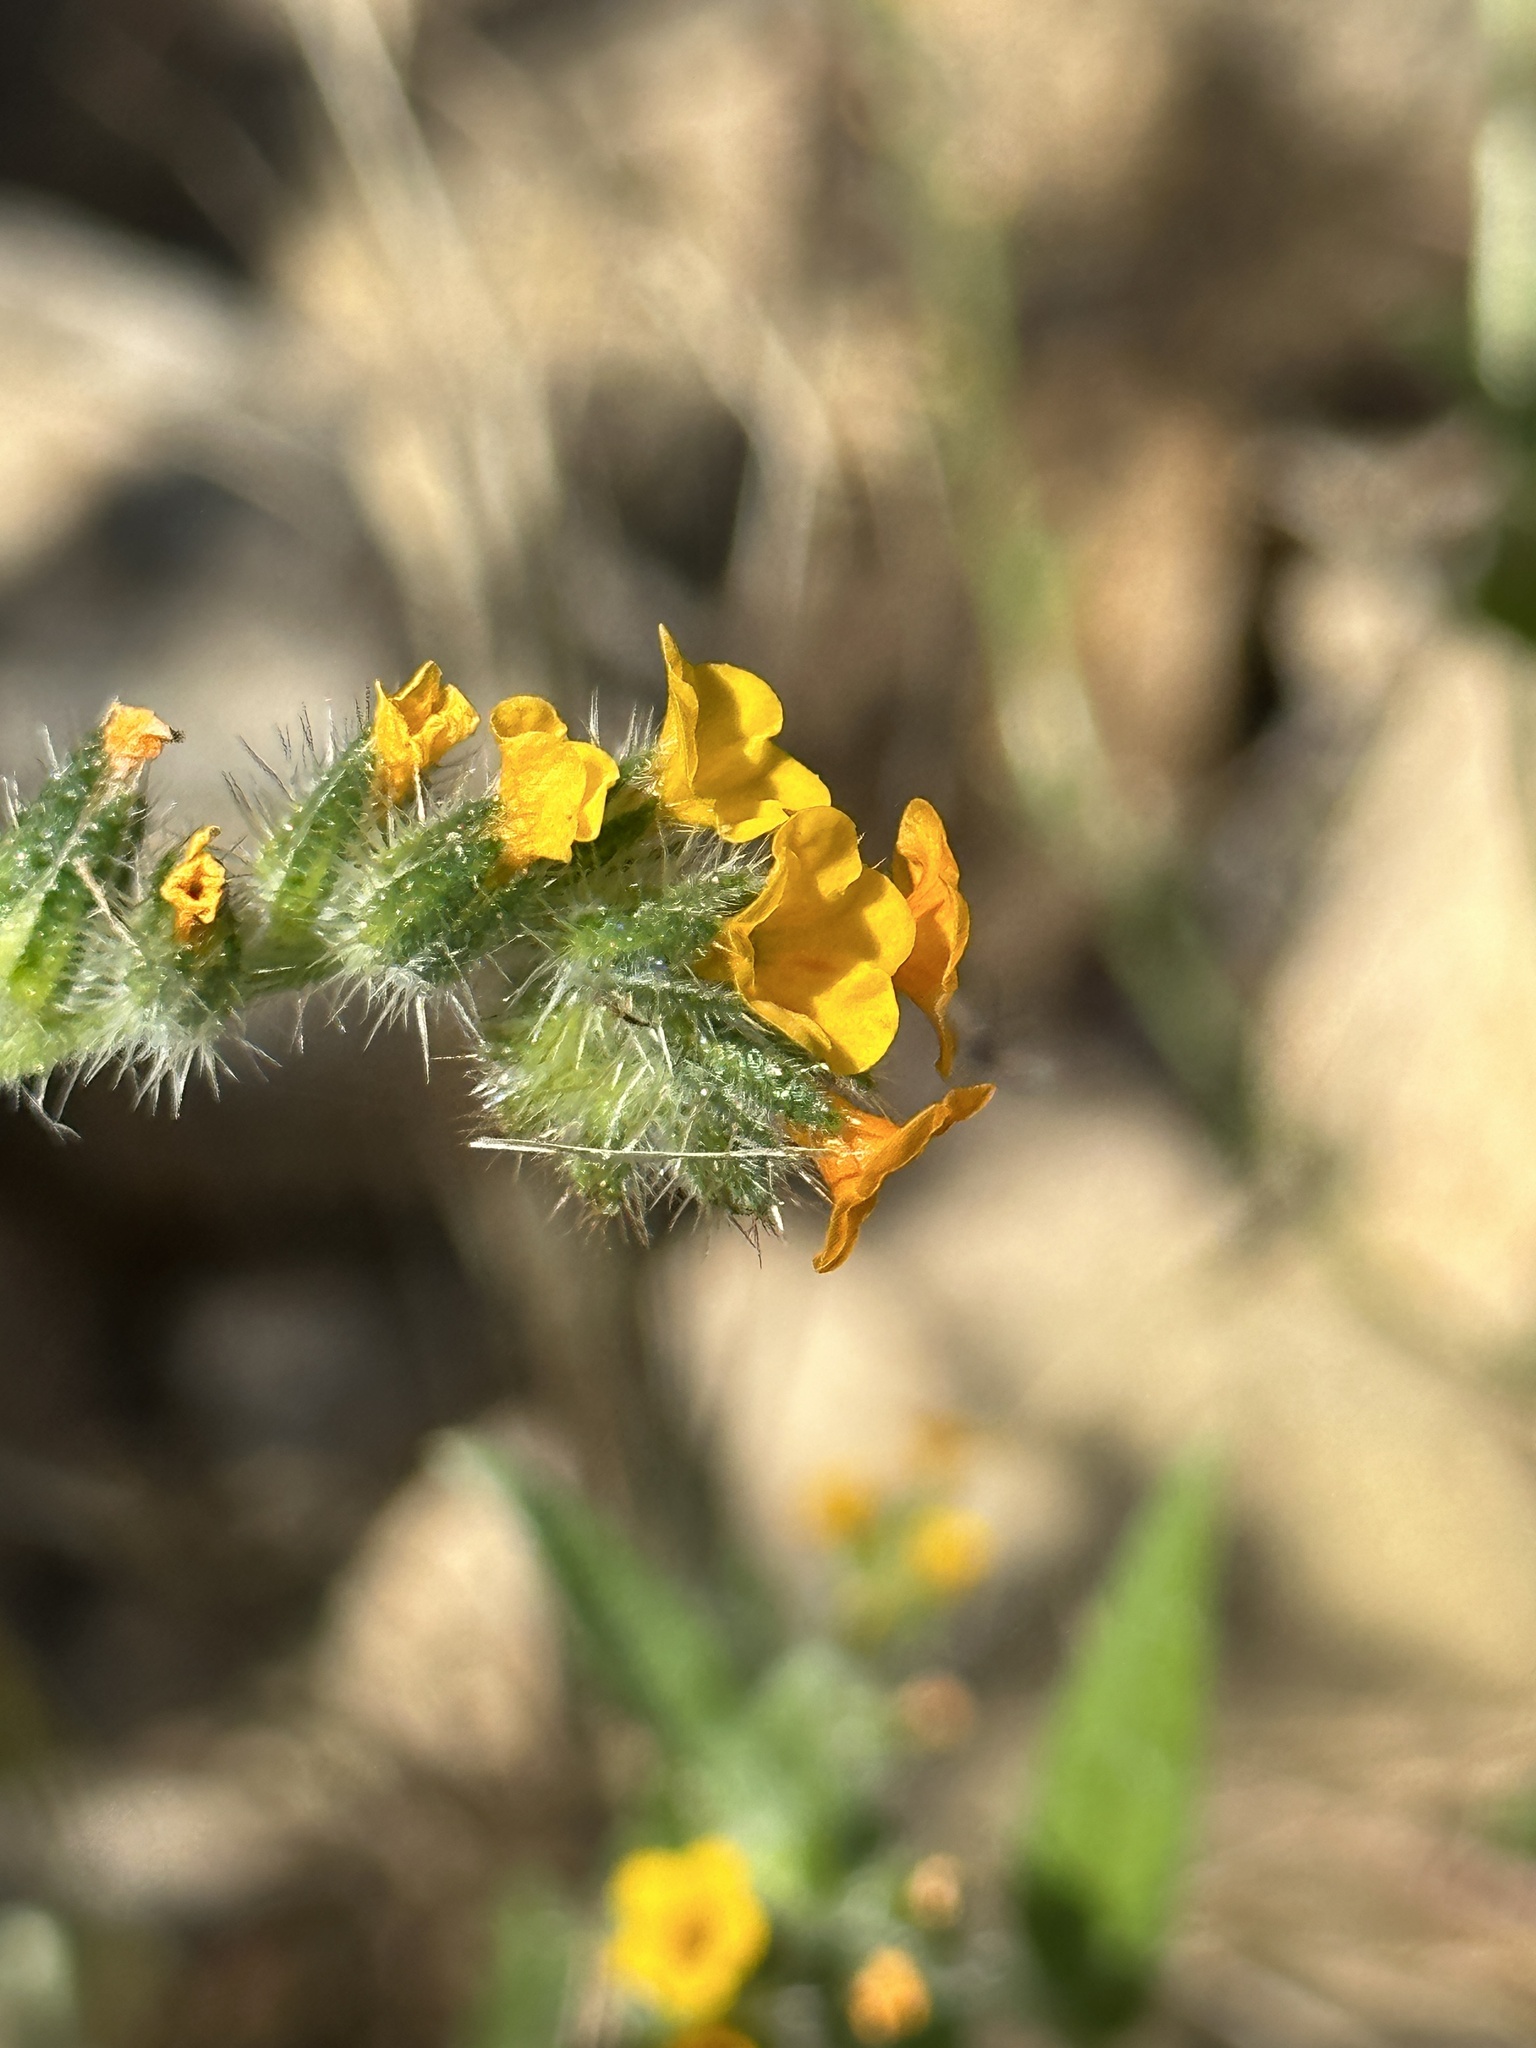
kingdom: Plantae
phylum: Tracheophyta
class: Magnoliopsida
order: Boraginales
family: Boraginaceae
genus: Amsinckia
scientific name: Amsinckia menziesii
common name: Menzies' fiddleneck
